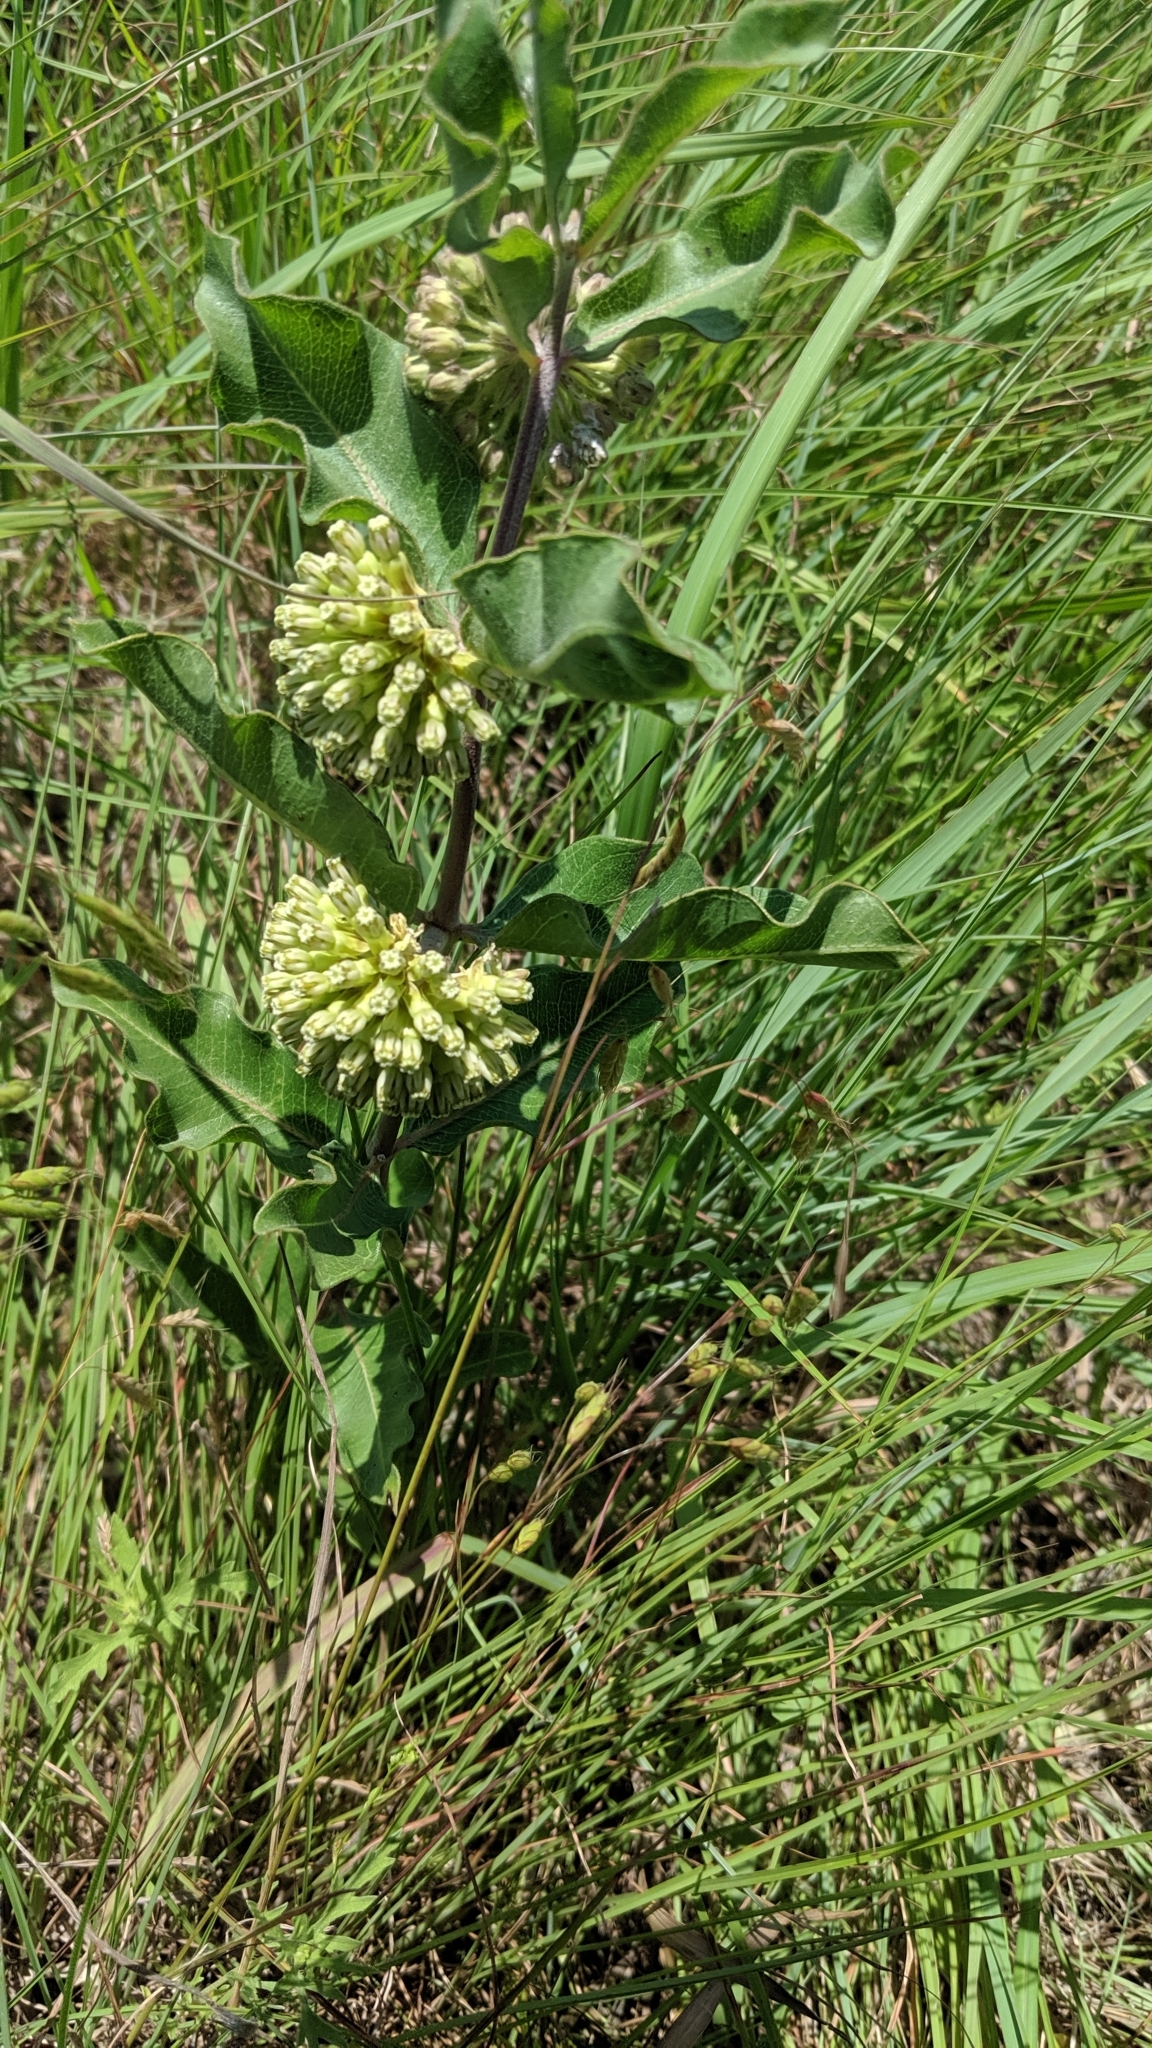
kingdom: Plantae
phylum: Tracheophyta
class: Magnoliopsida
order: Gentianales
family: Apocynaceae
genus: Asclepias
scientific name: Asclepias viridiflora
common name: Green comet milkweed
